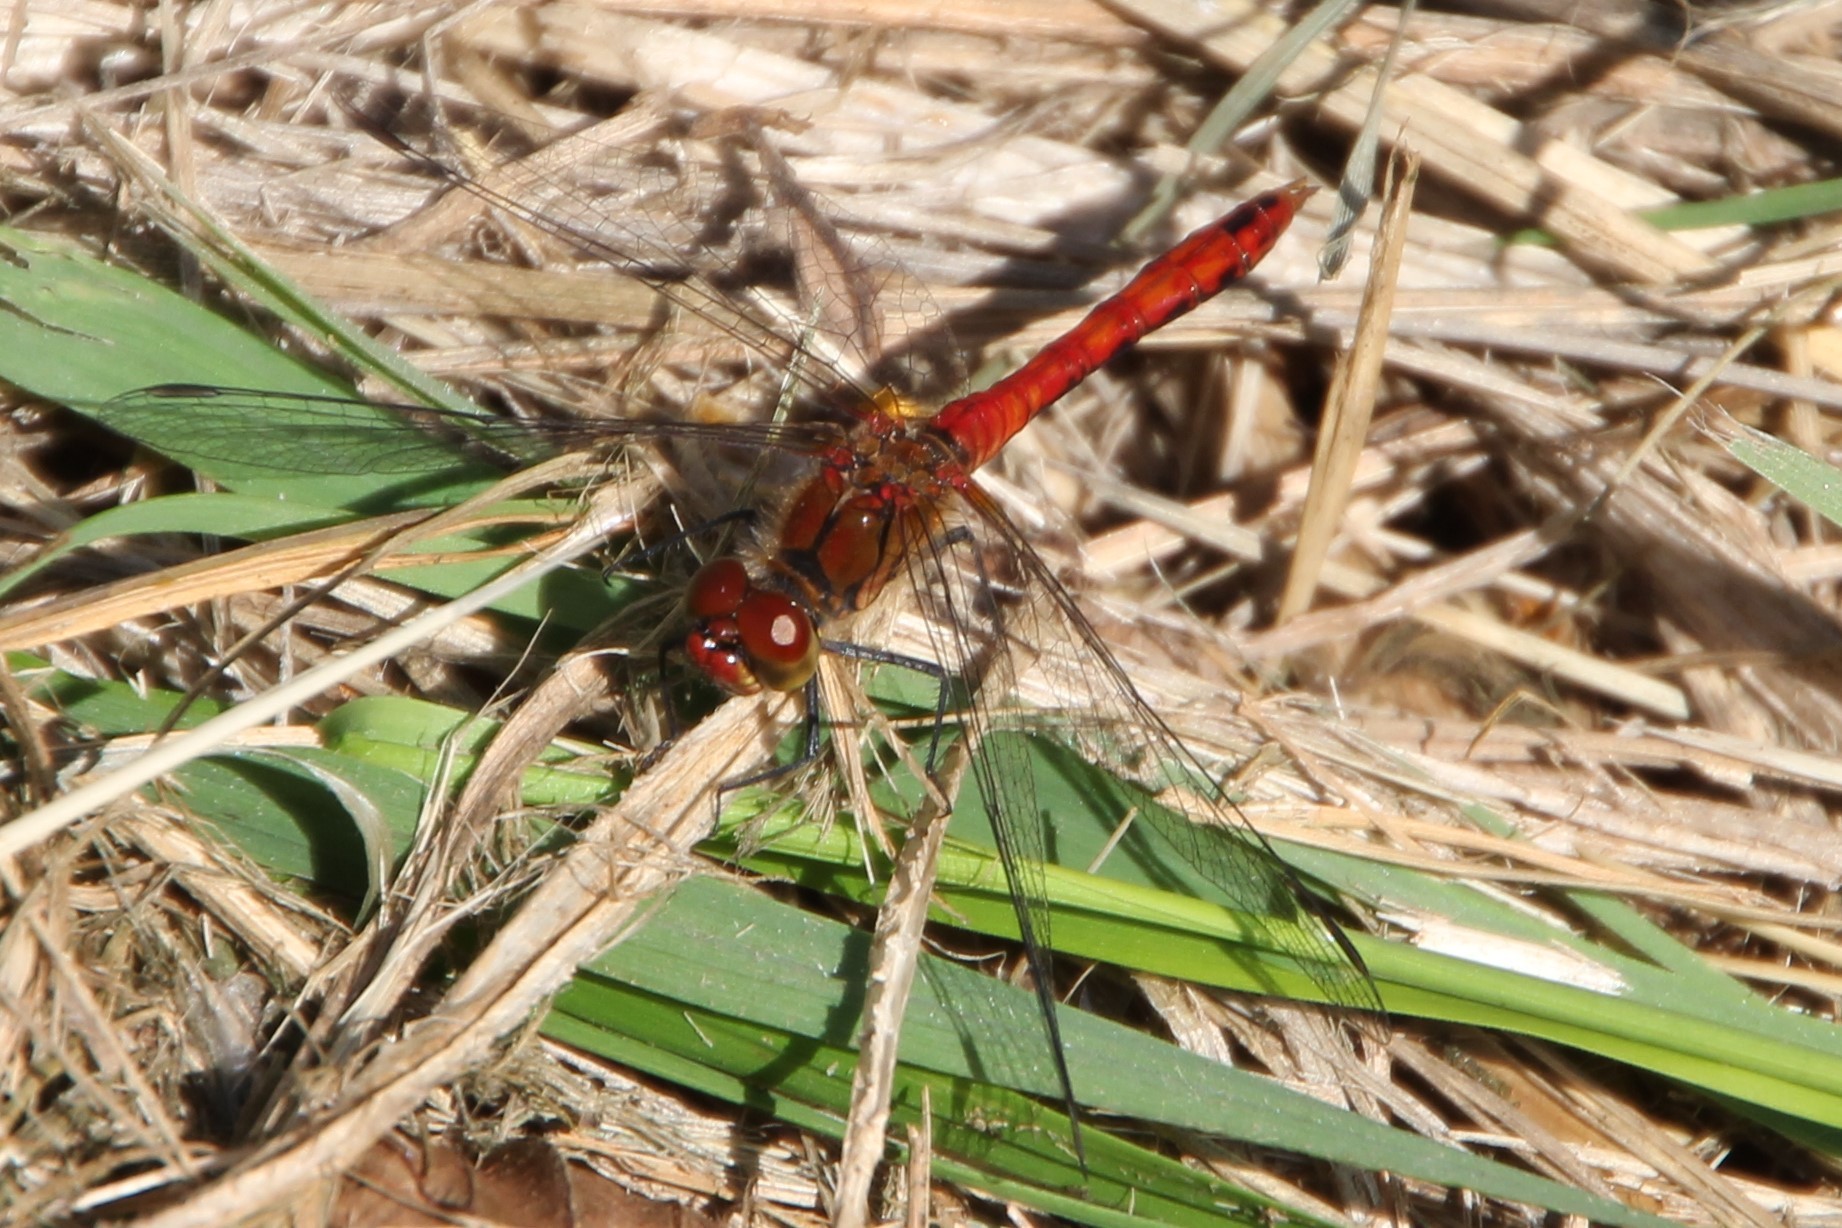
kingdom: Animalia
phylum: Arthropoda
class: Insecta
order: Odonata
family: Libellulidae
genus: Sympetrum
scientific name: Sympetrum sanguineum
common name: Ruddy darter
